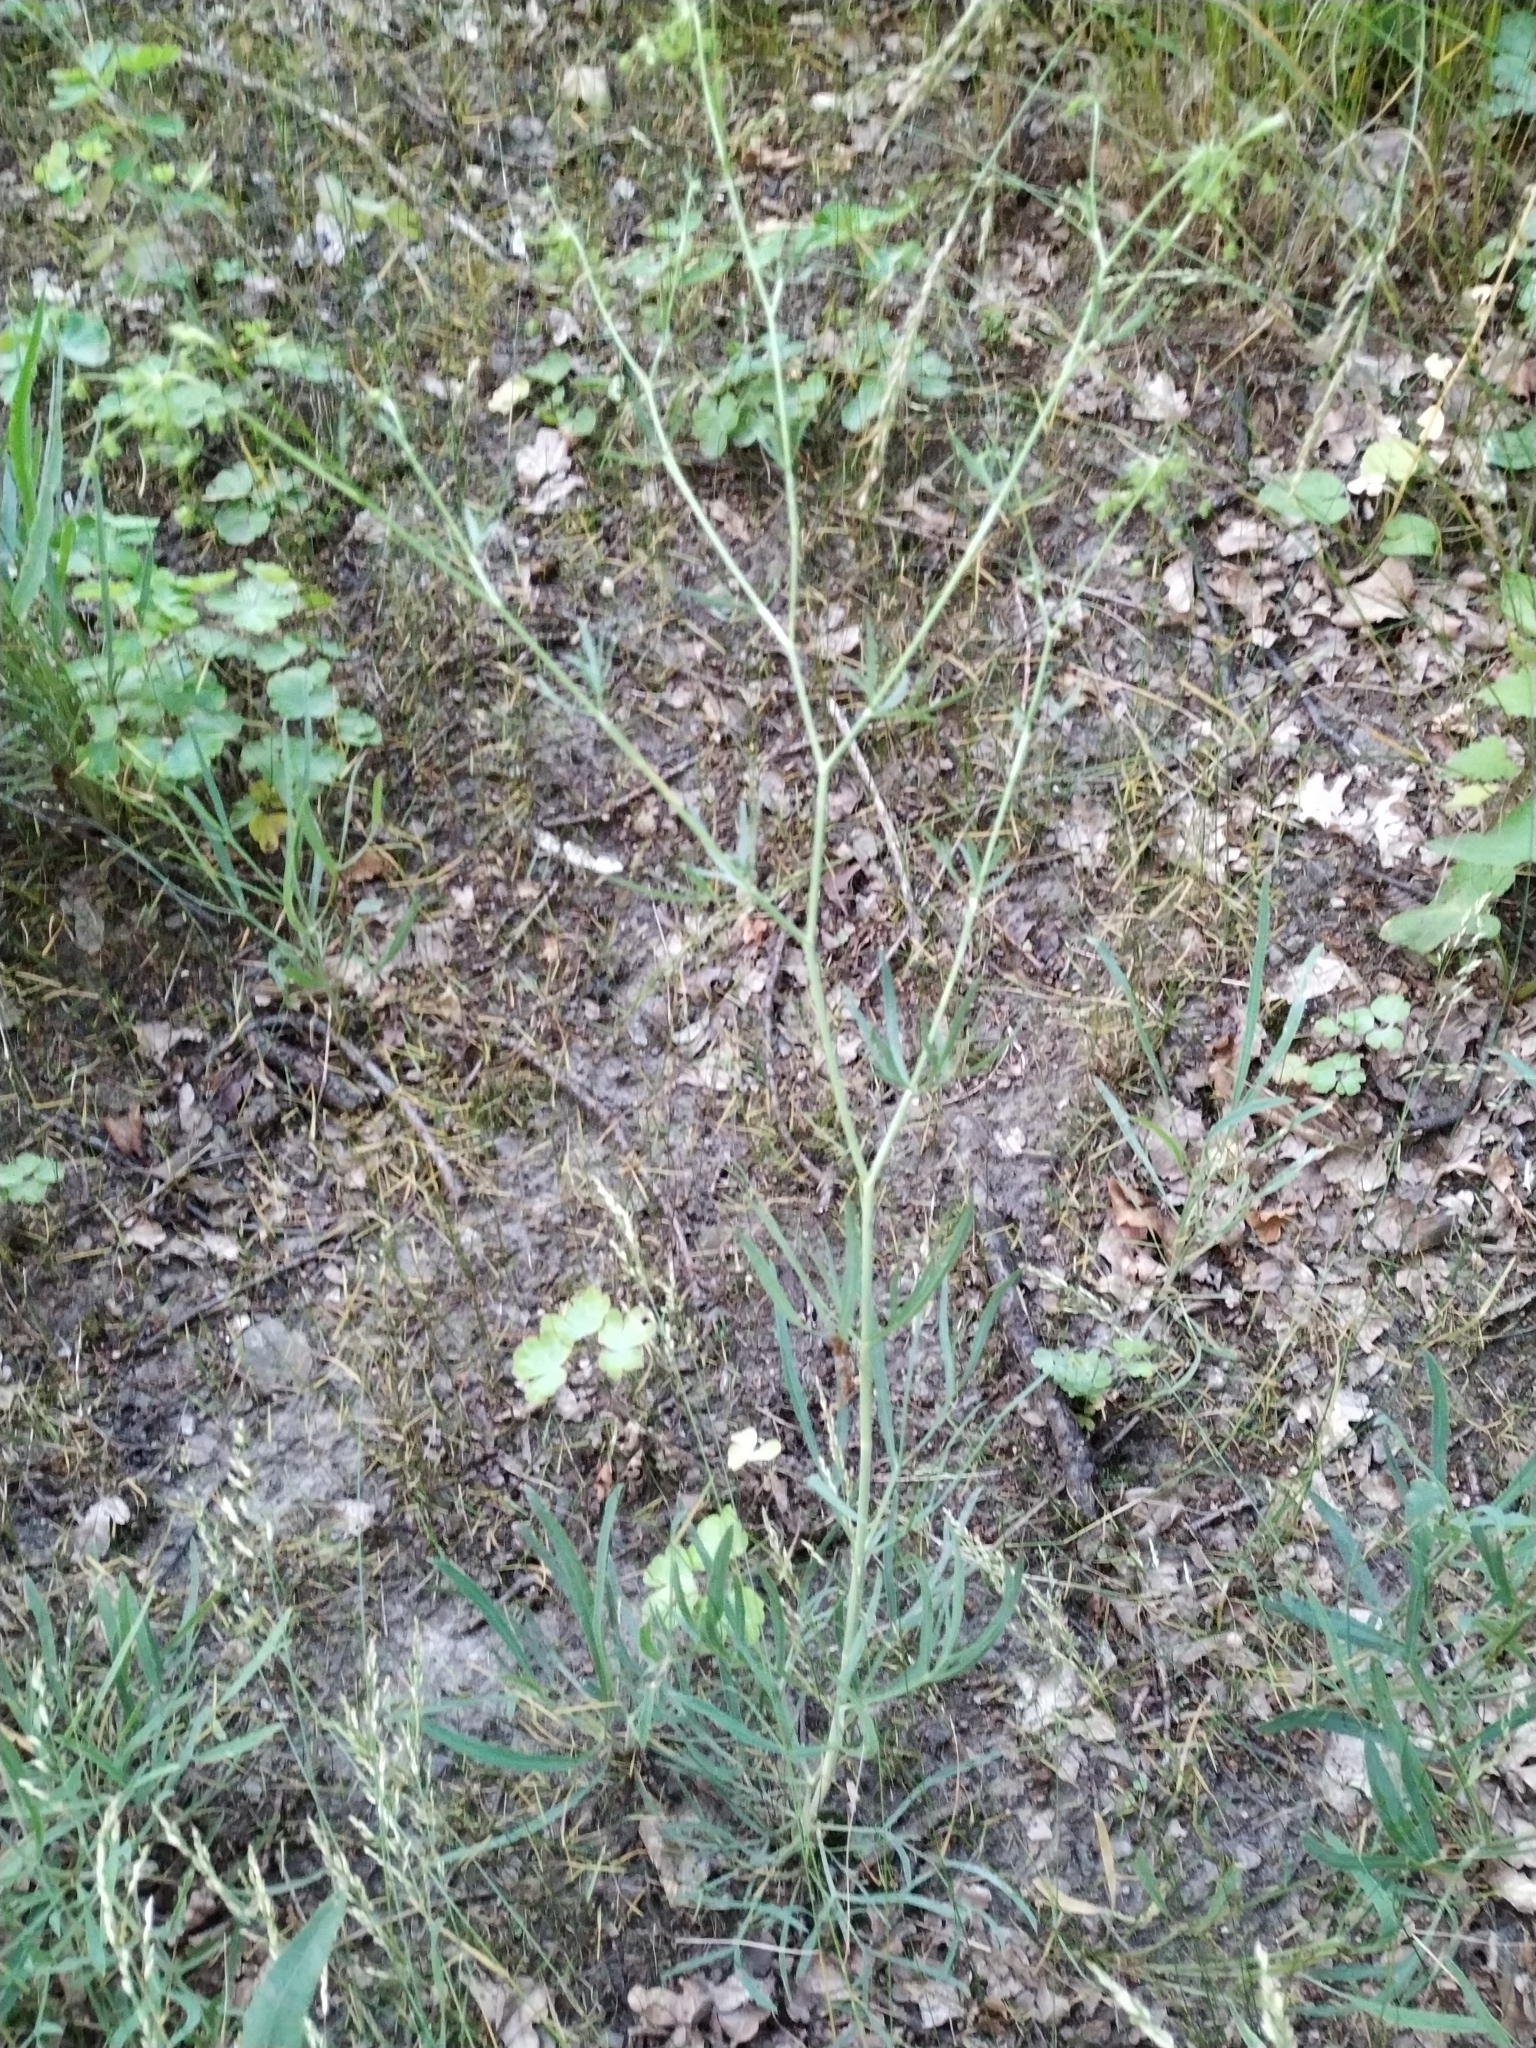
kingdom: Plantae
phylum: Tracheophyta
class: Magnoliopsida
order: Apiales
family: Apiaceae
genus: Falcaria
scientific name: Falcaria vulgaris
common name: Longleaf
